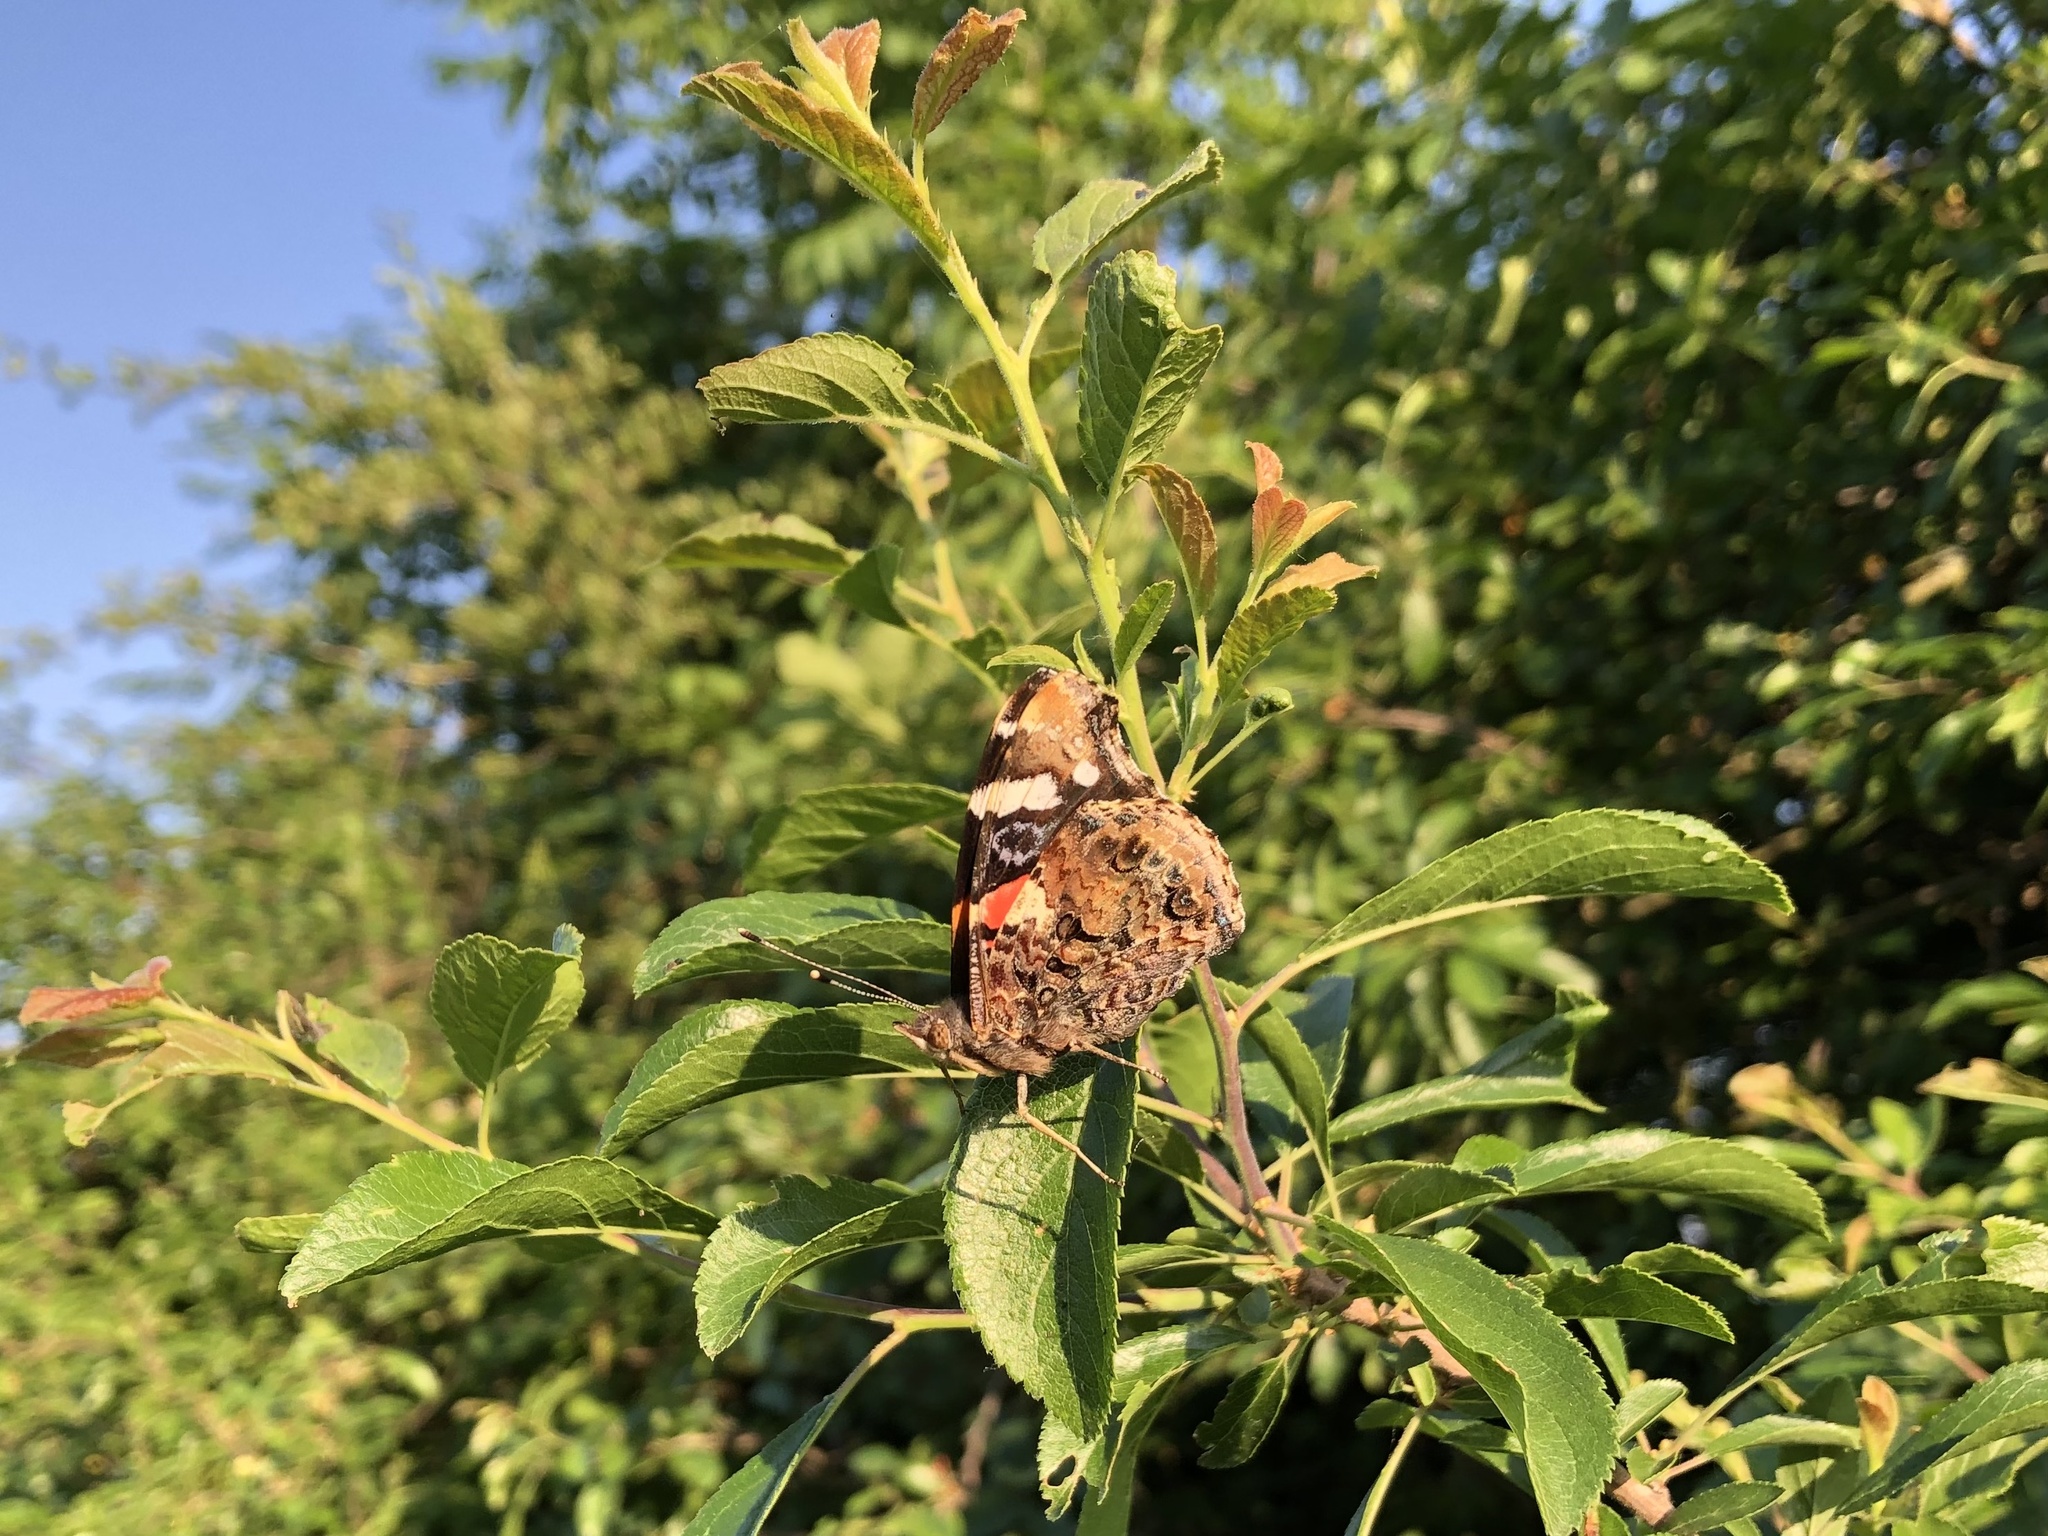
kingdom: Animalia
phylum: Arthropoda
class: Insecta
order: Lepidoptera
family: Nymphalidae
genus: Vanessa
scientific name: Vanessa atalanta
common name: Red admiral
